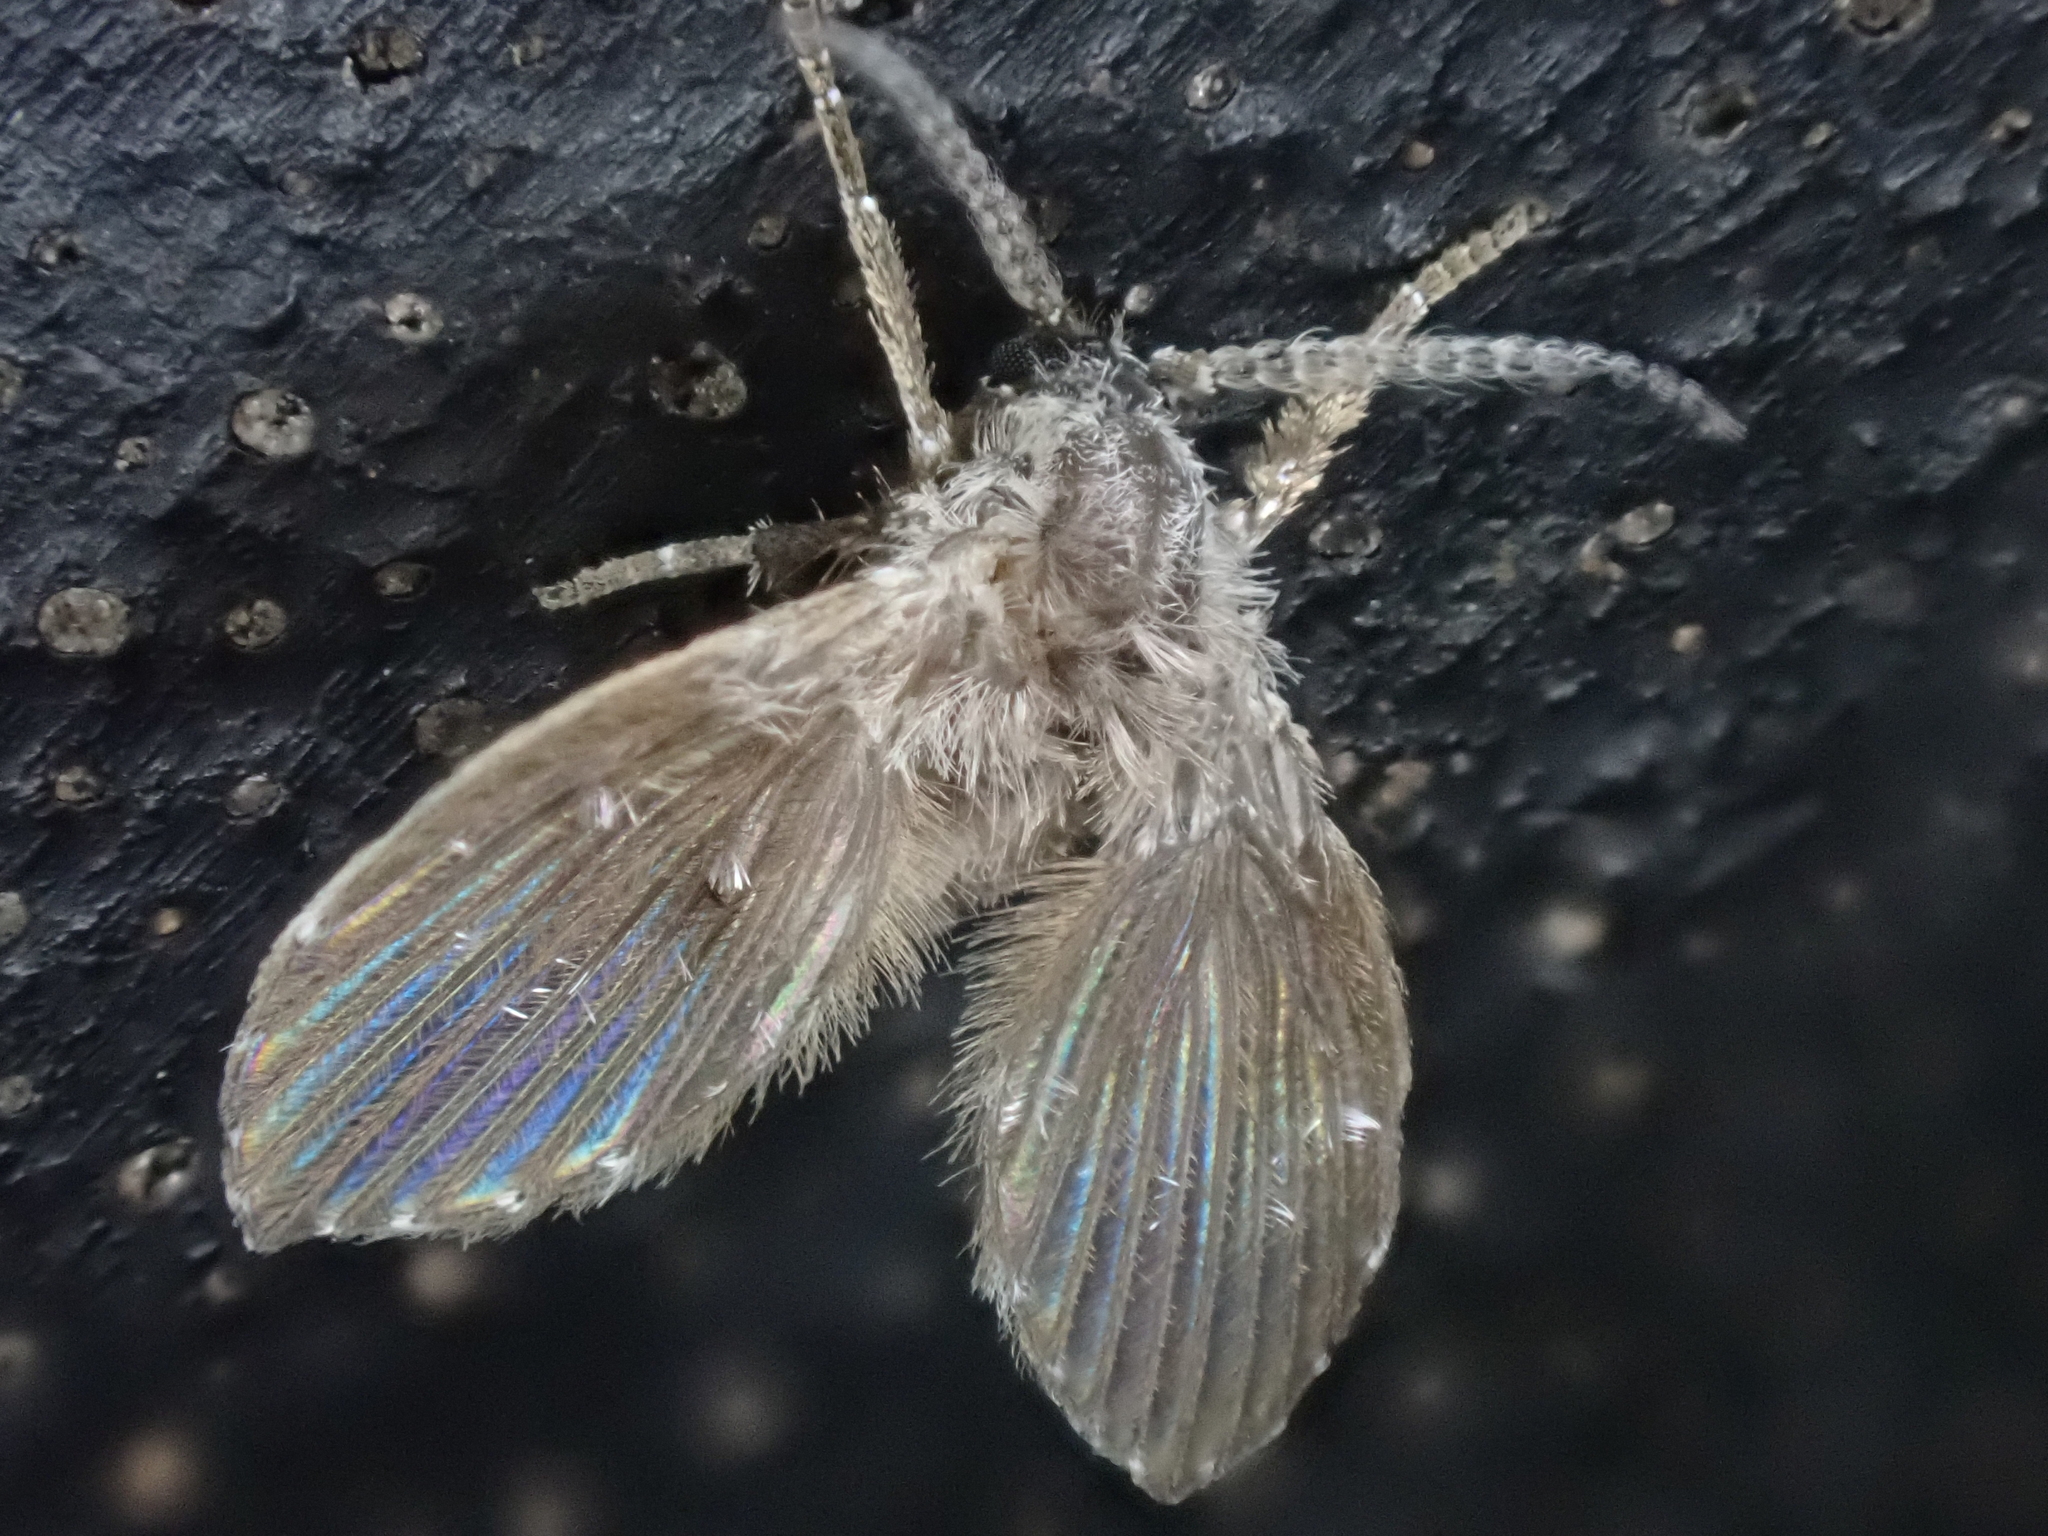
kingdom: Animalia
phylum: Arthropoda
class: Insecta
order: Diptera
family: Psychodidae
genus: Clogmia
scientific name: Clogmia albipunctatus
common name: White-spotted moth fly
